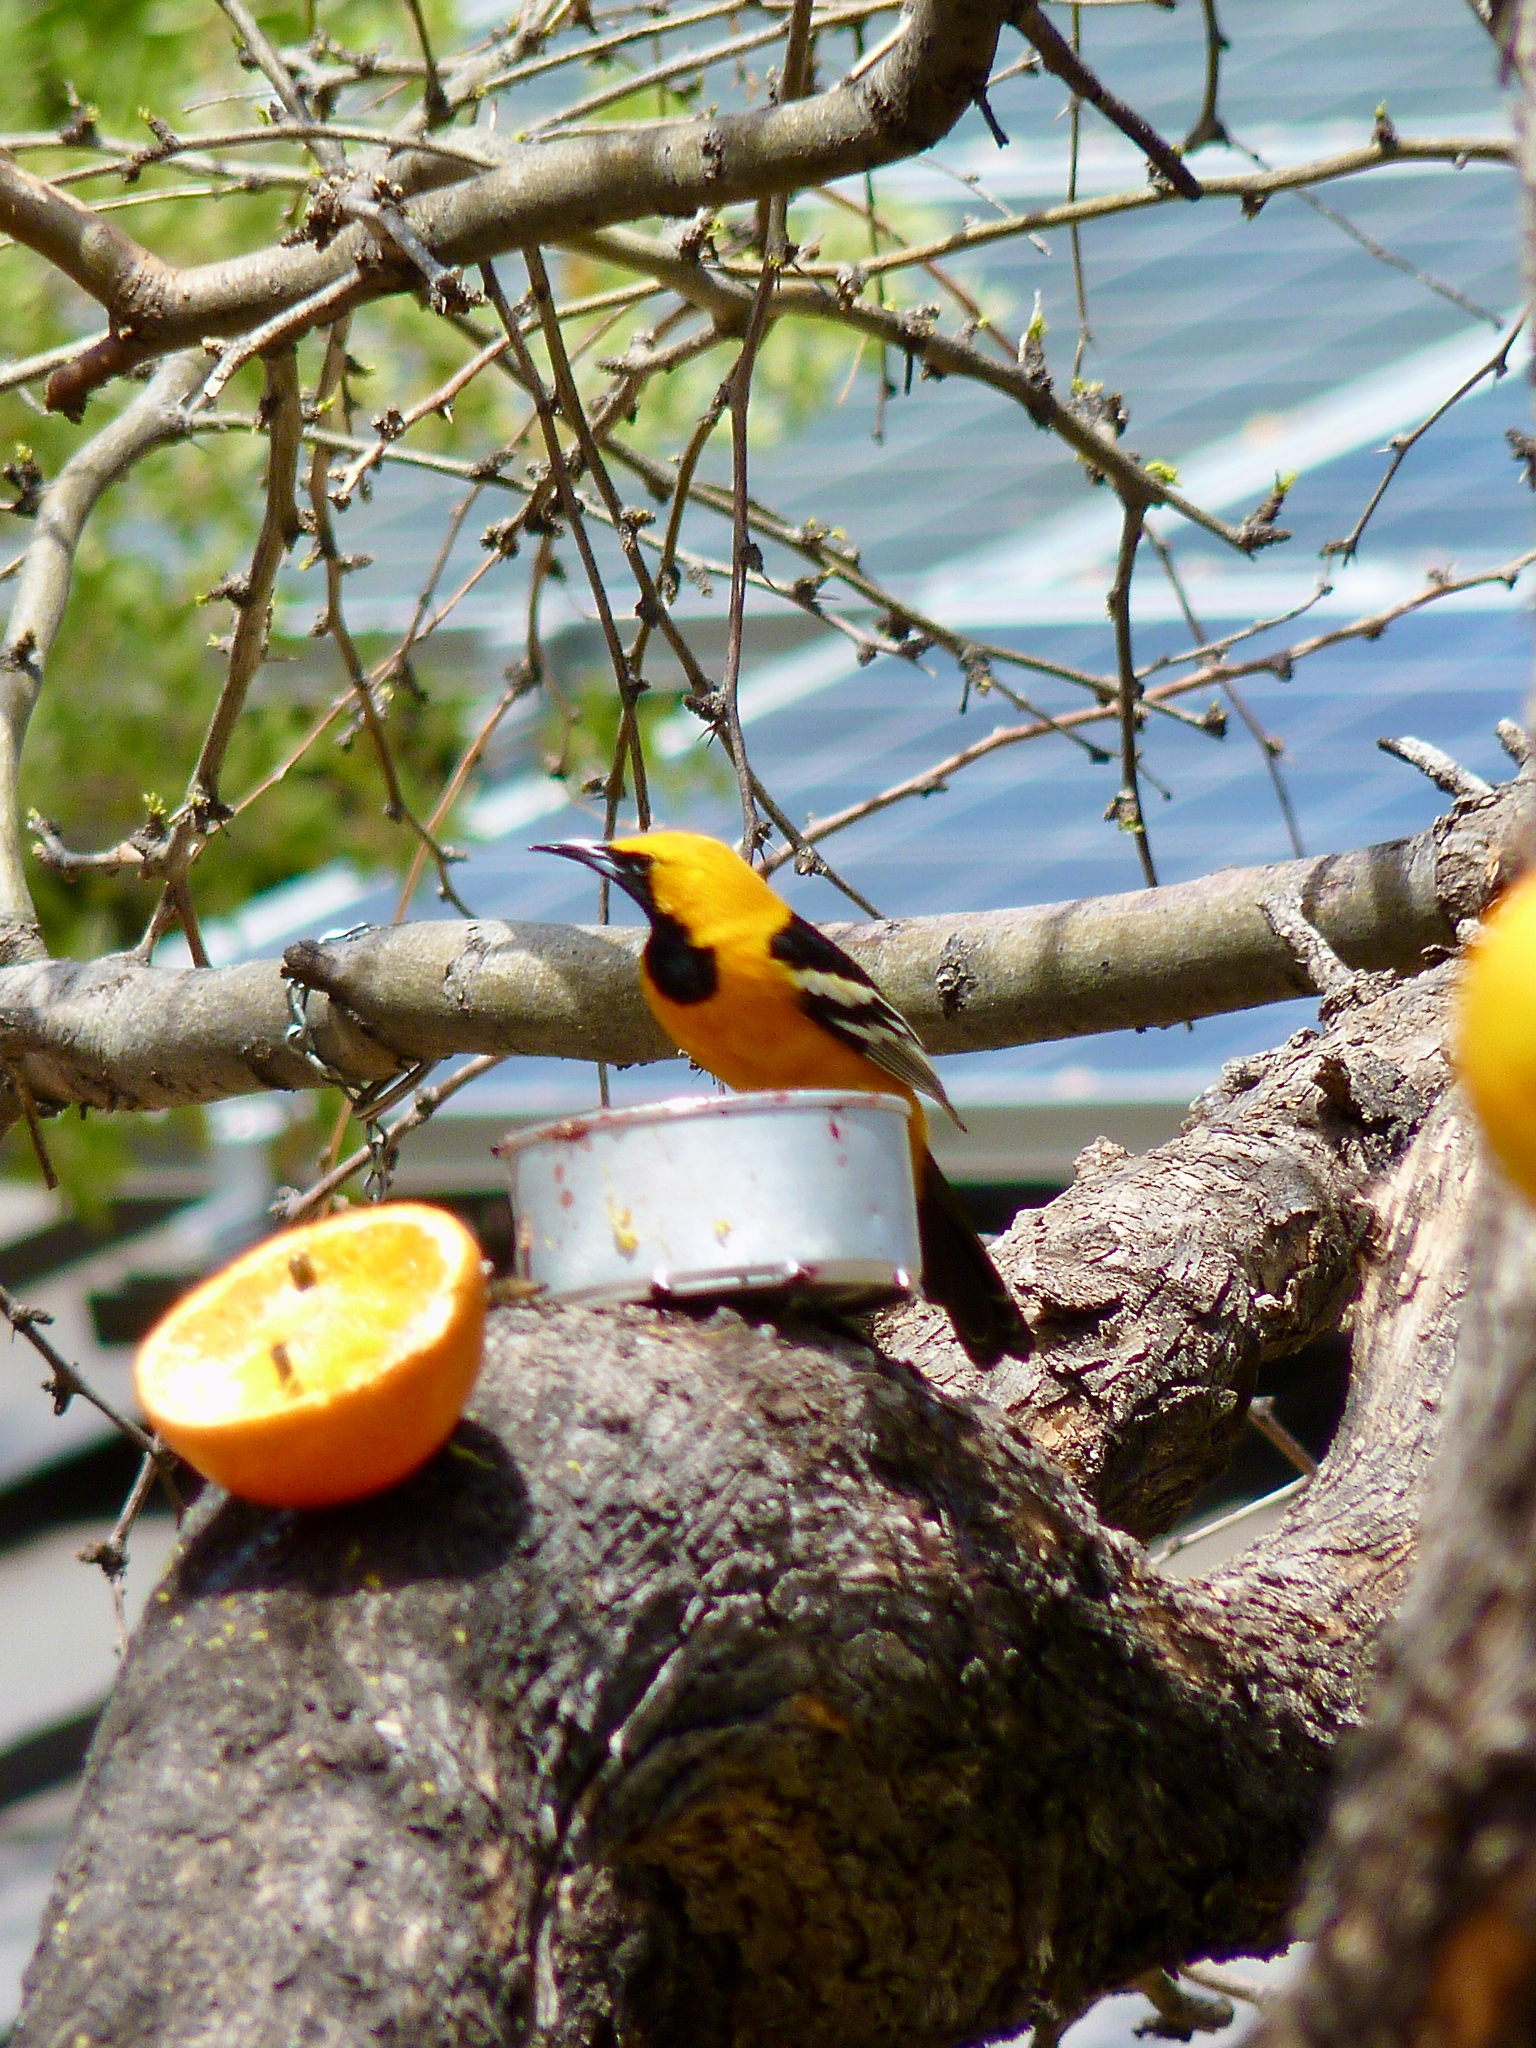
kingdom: Animalia
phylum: Chordata
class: Aves
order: Passeriformes
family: Icteridae
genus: Icterus
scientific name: Icterus cucullatus
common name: Hooded oriole
